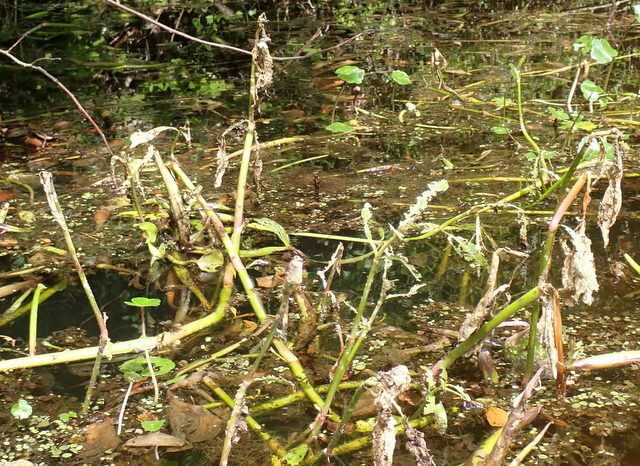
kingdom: Plantae
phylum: Tracheophyta
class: Magnoliopsida
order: Caryophyllales
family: Amaranthaceae
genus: Alternanthera
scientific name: Alternanthera philoxeroides
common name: Alligatorweed
